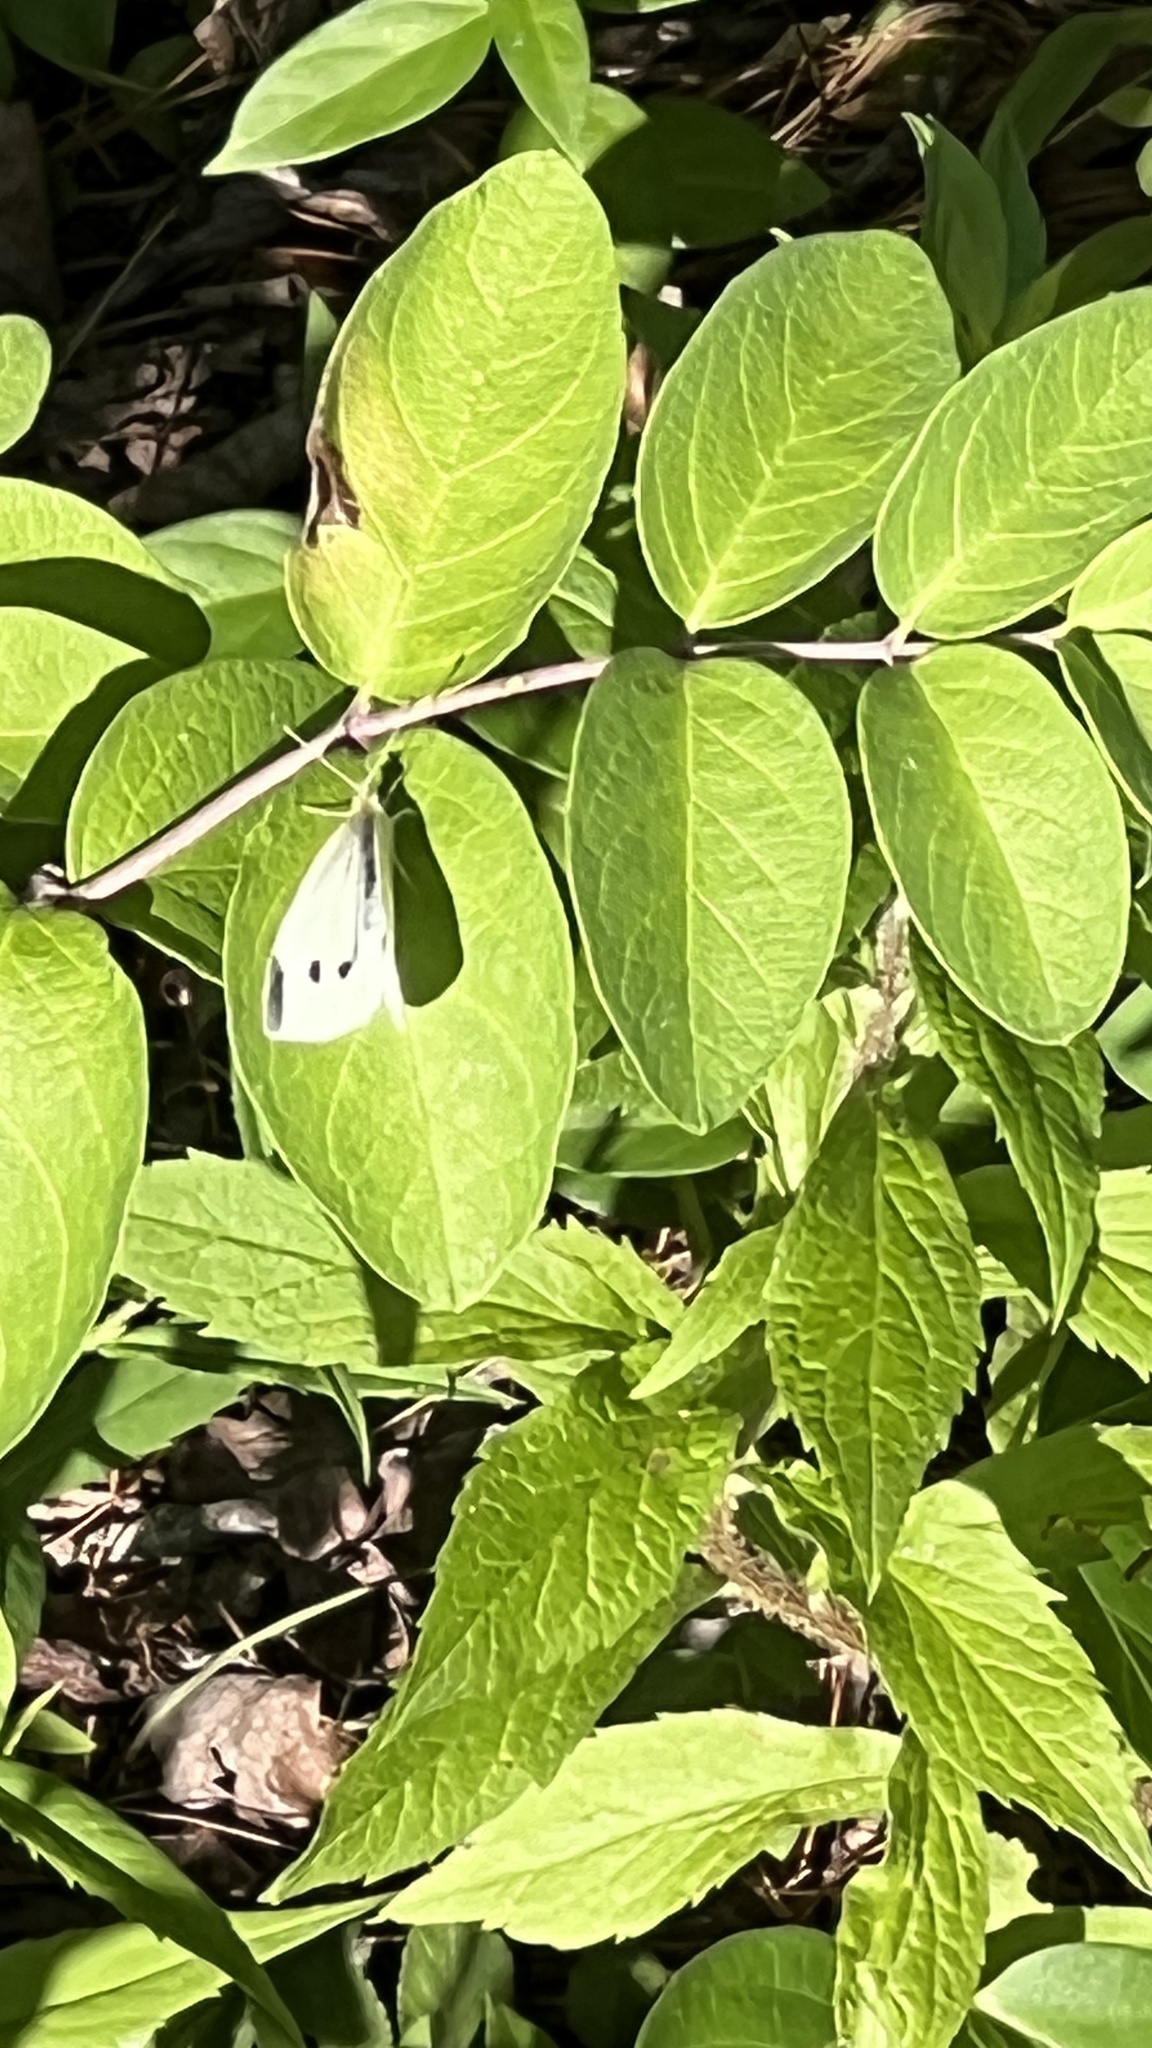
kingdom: Animalia
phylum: Arthropoda
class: Insecta
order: Lepidoptera
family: Pieridae
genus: Pieris
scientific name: Pieris rapae
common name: Small white
